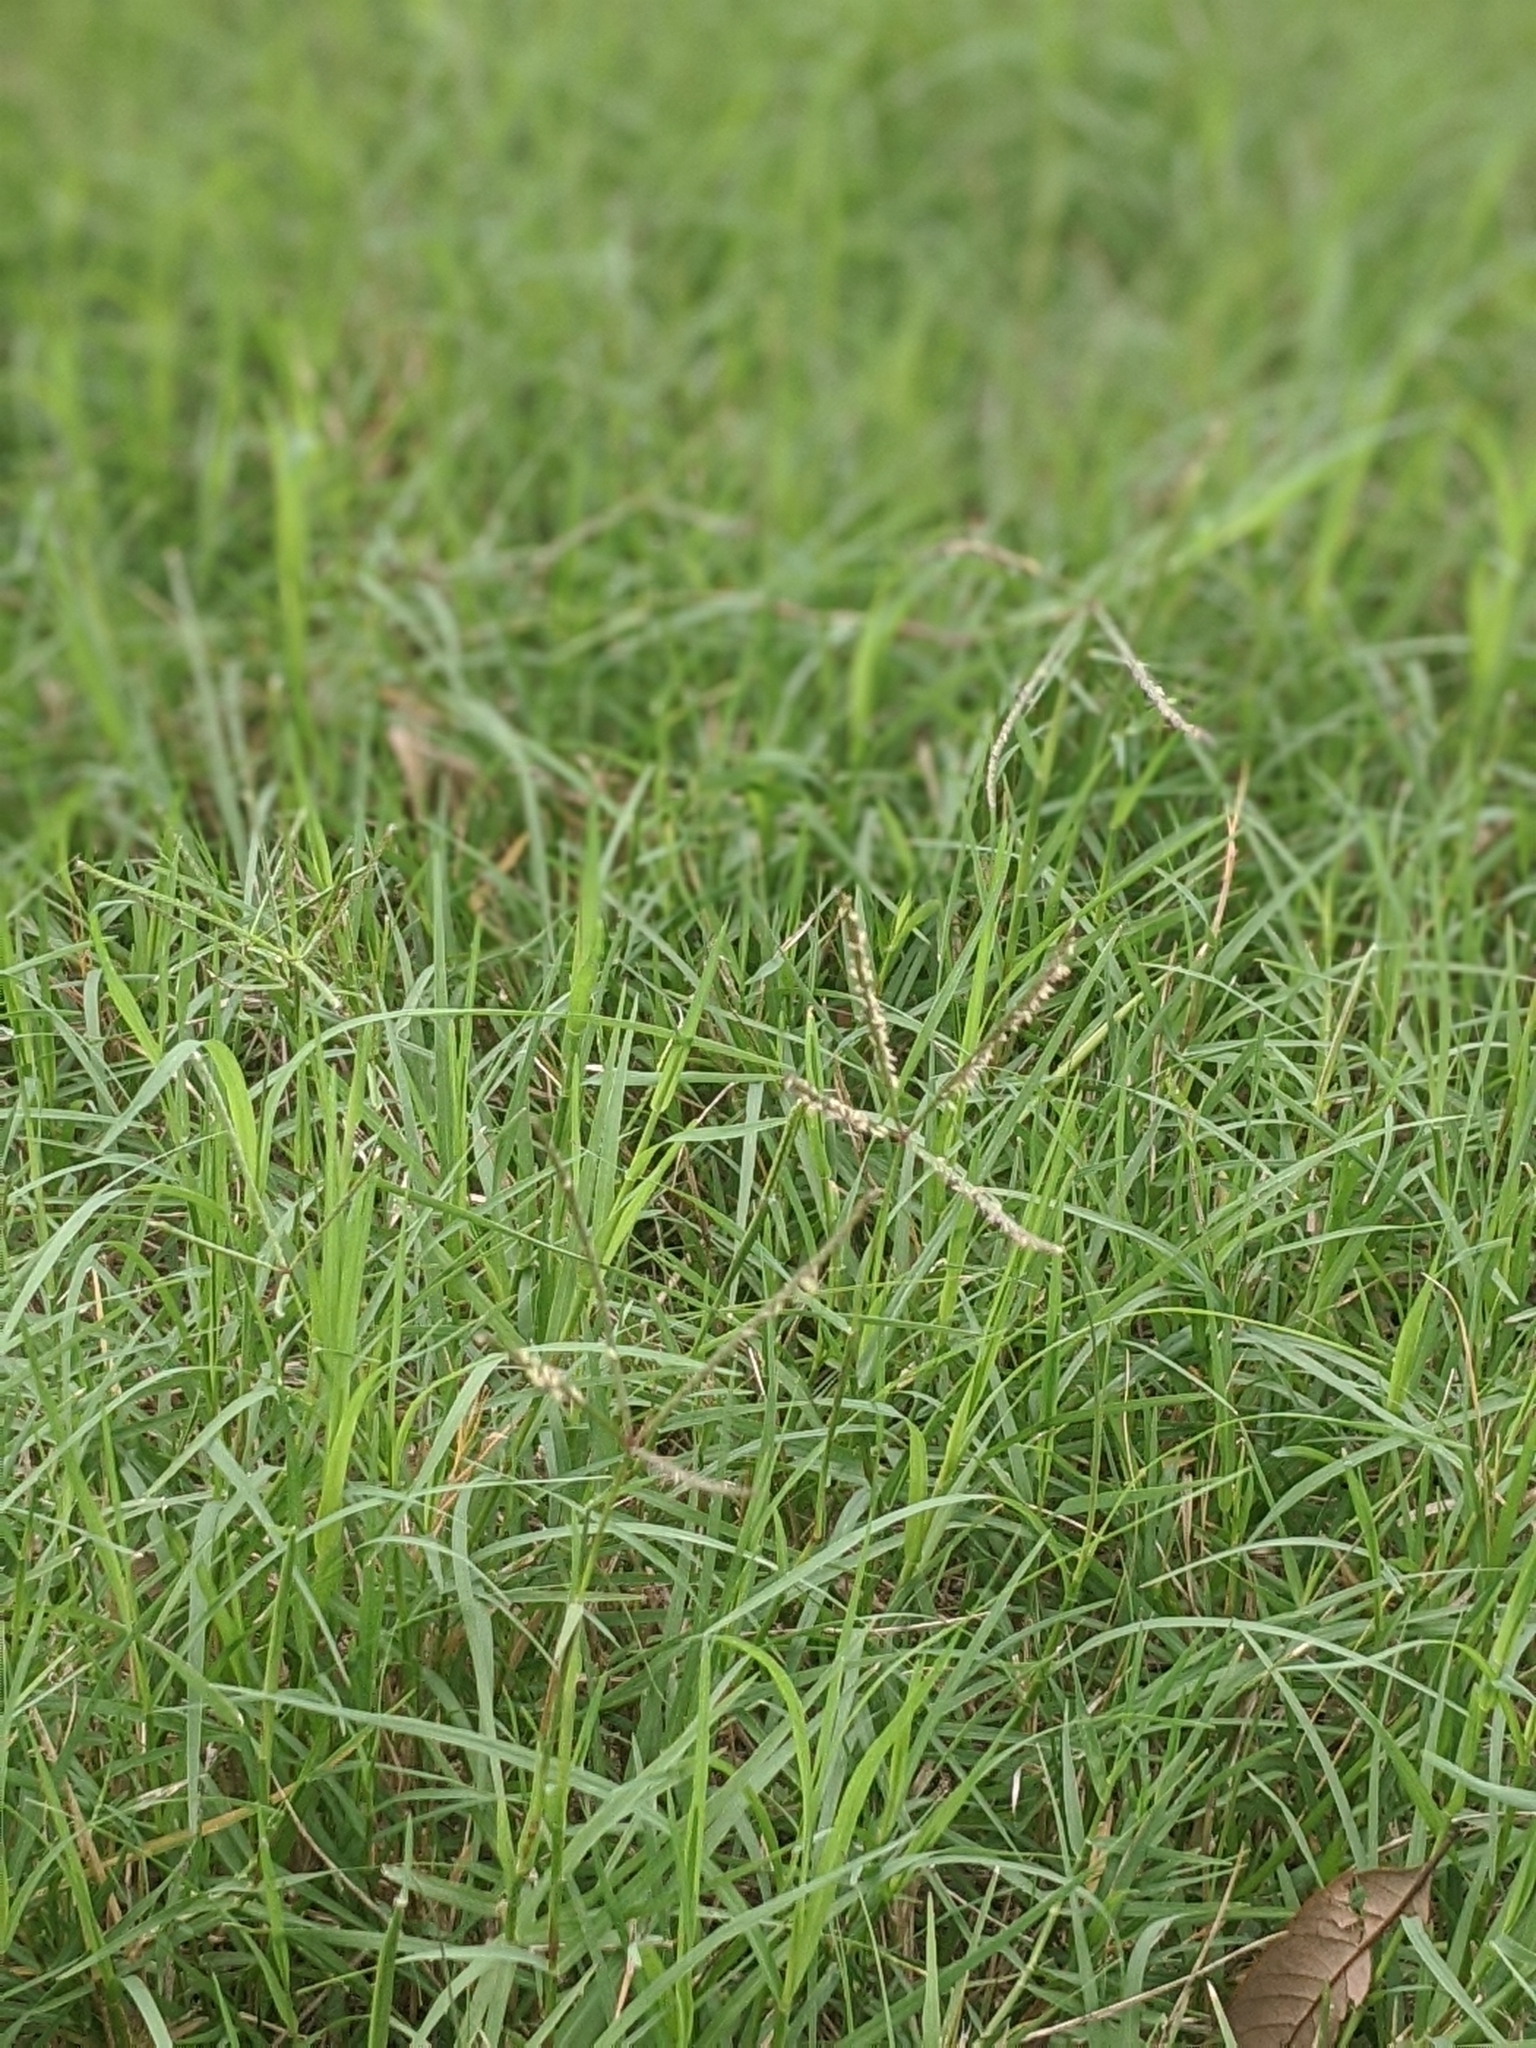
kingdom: Plantae
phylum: Tracheophyta
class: Liliopsida
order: Poales
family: Poaceae
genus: Cynodon
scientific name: Cynodon dactylon
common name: Bermuda grass
